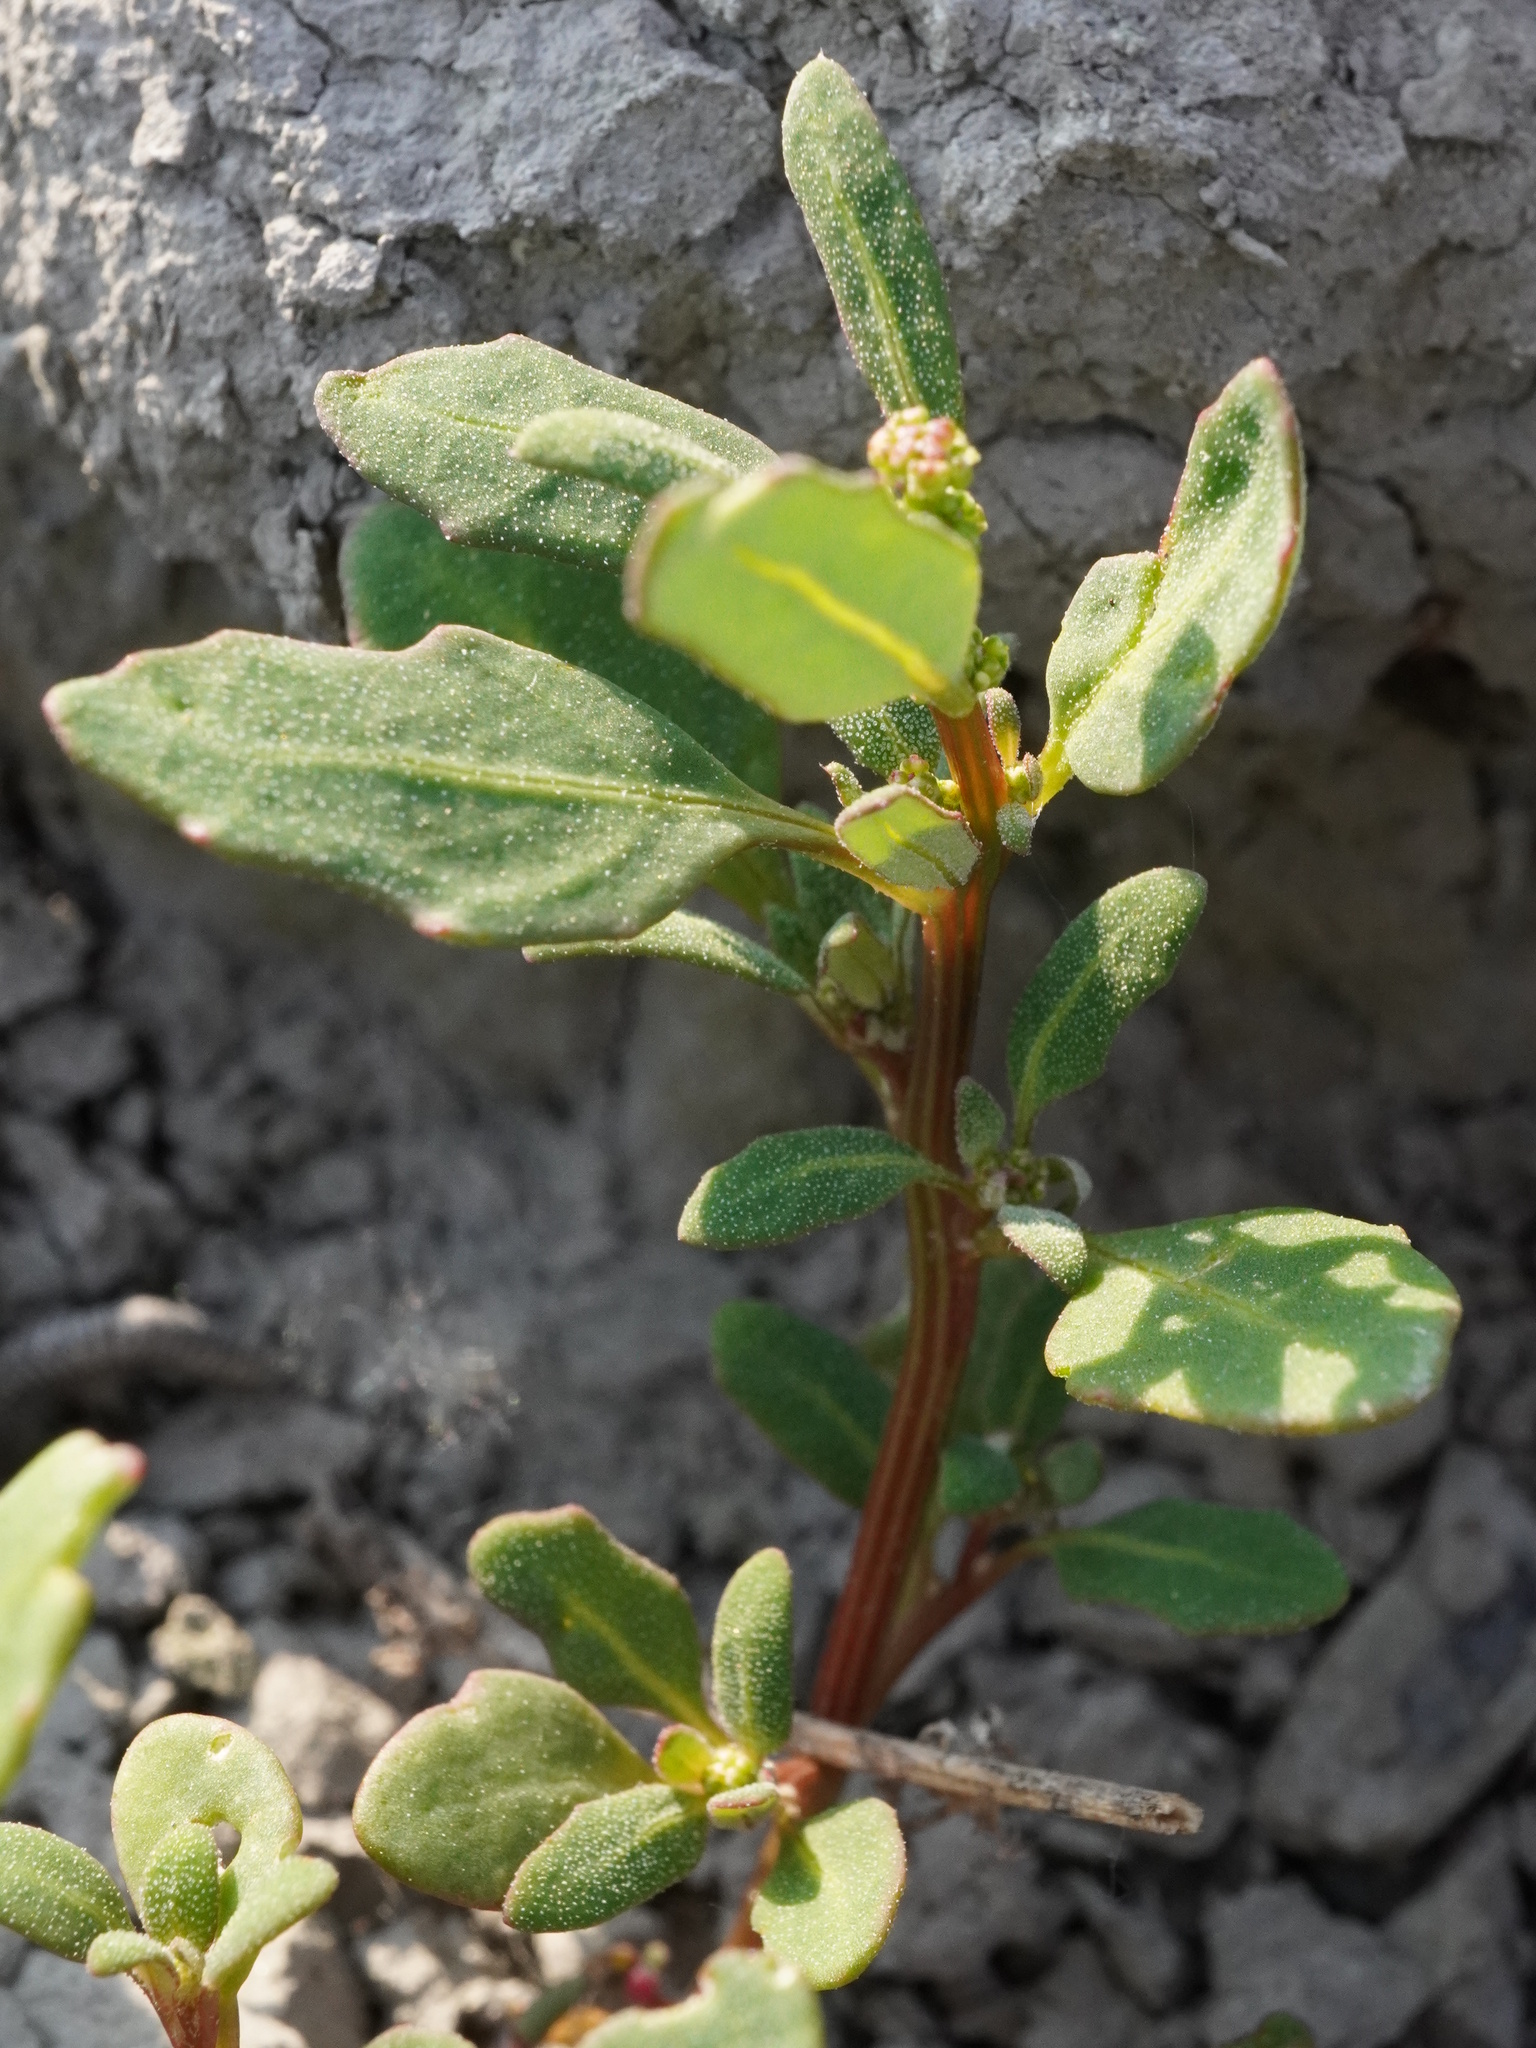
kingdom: Plantae
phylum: Tracheophyta
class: Magnoliopsida
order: Caryophyllales
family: Amaranthaceae
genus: Oxybasis
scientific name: Oxybasis glauca
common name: Glaucous goosefoot
